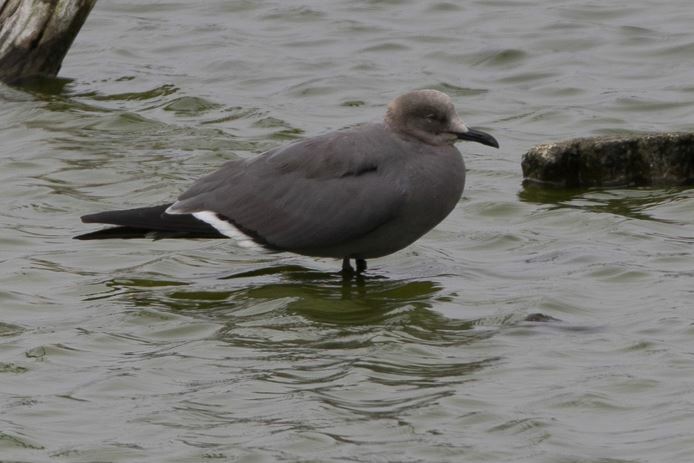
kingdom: Animalia
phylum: Chordata
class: Aves
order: Charadriiformes
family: Laridae
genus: Leucophaeus
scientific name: Leucophaeus modestus
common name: Gray gull
